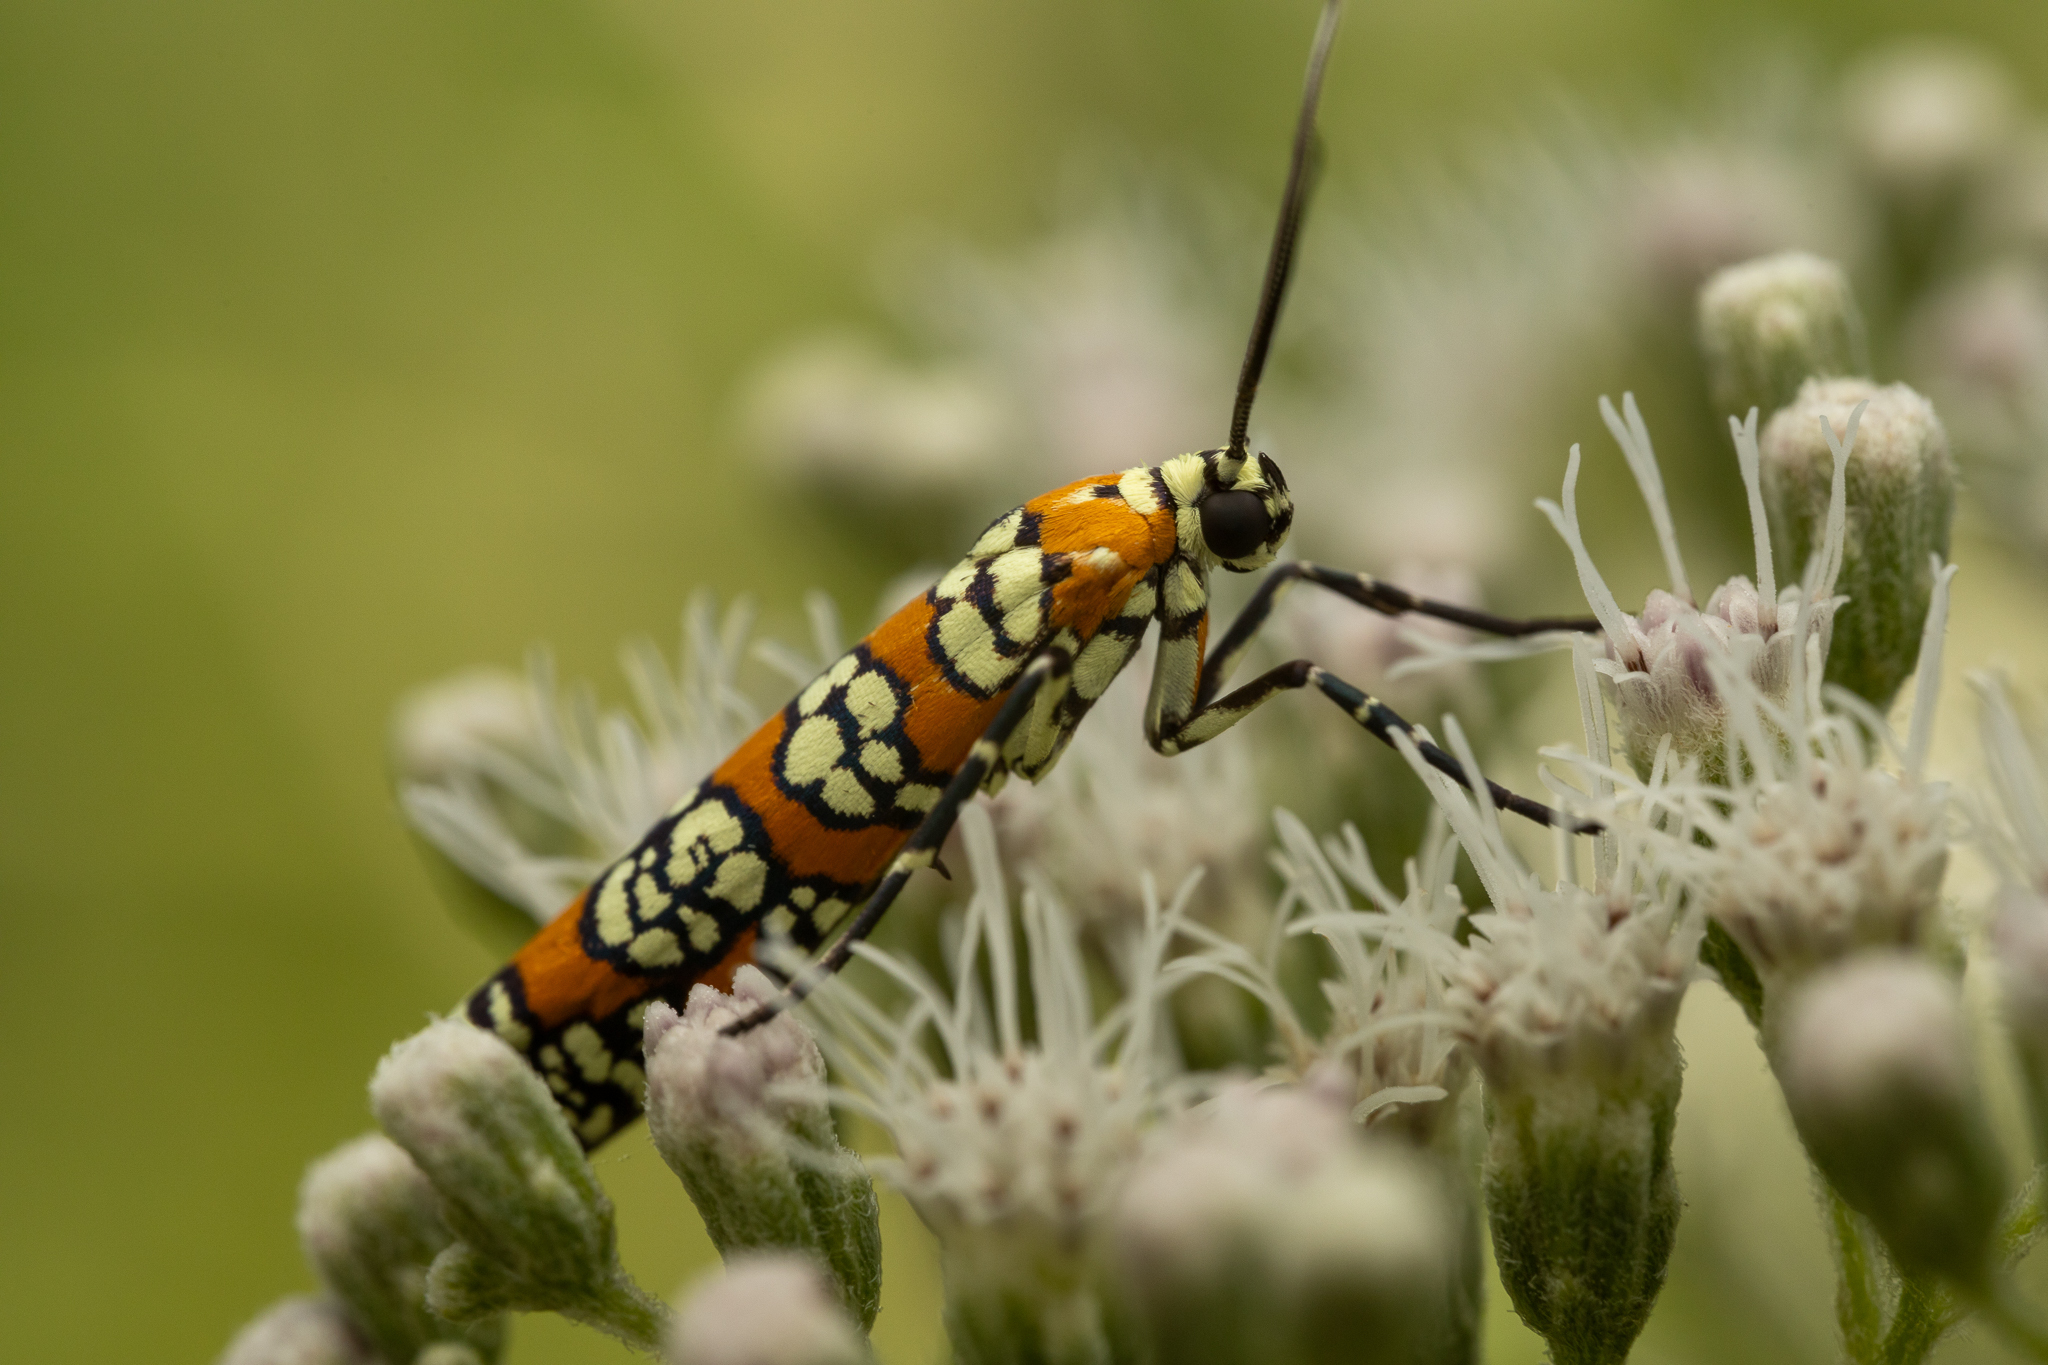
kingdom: Animalia
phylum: Arthropoda
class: Insecta
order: Lepidoptera
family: Attevidae
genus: Atteva
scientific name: Atteva punctella
